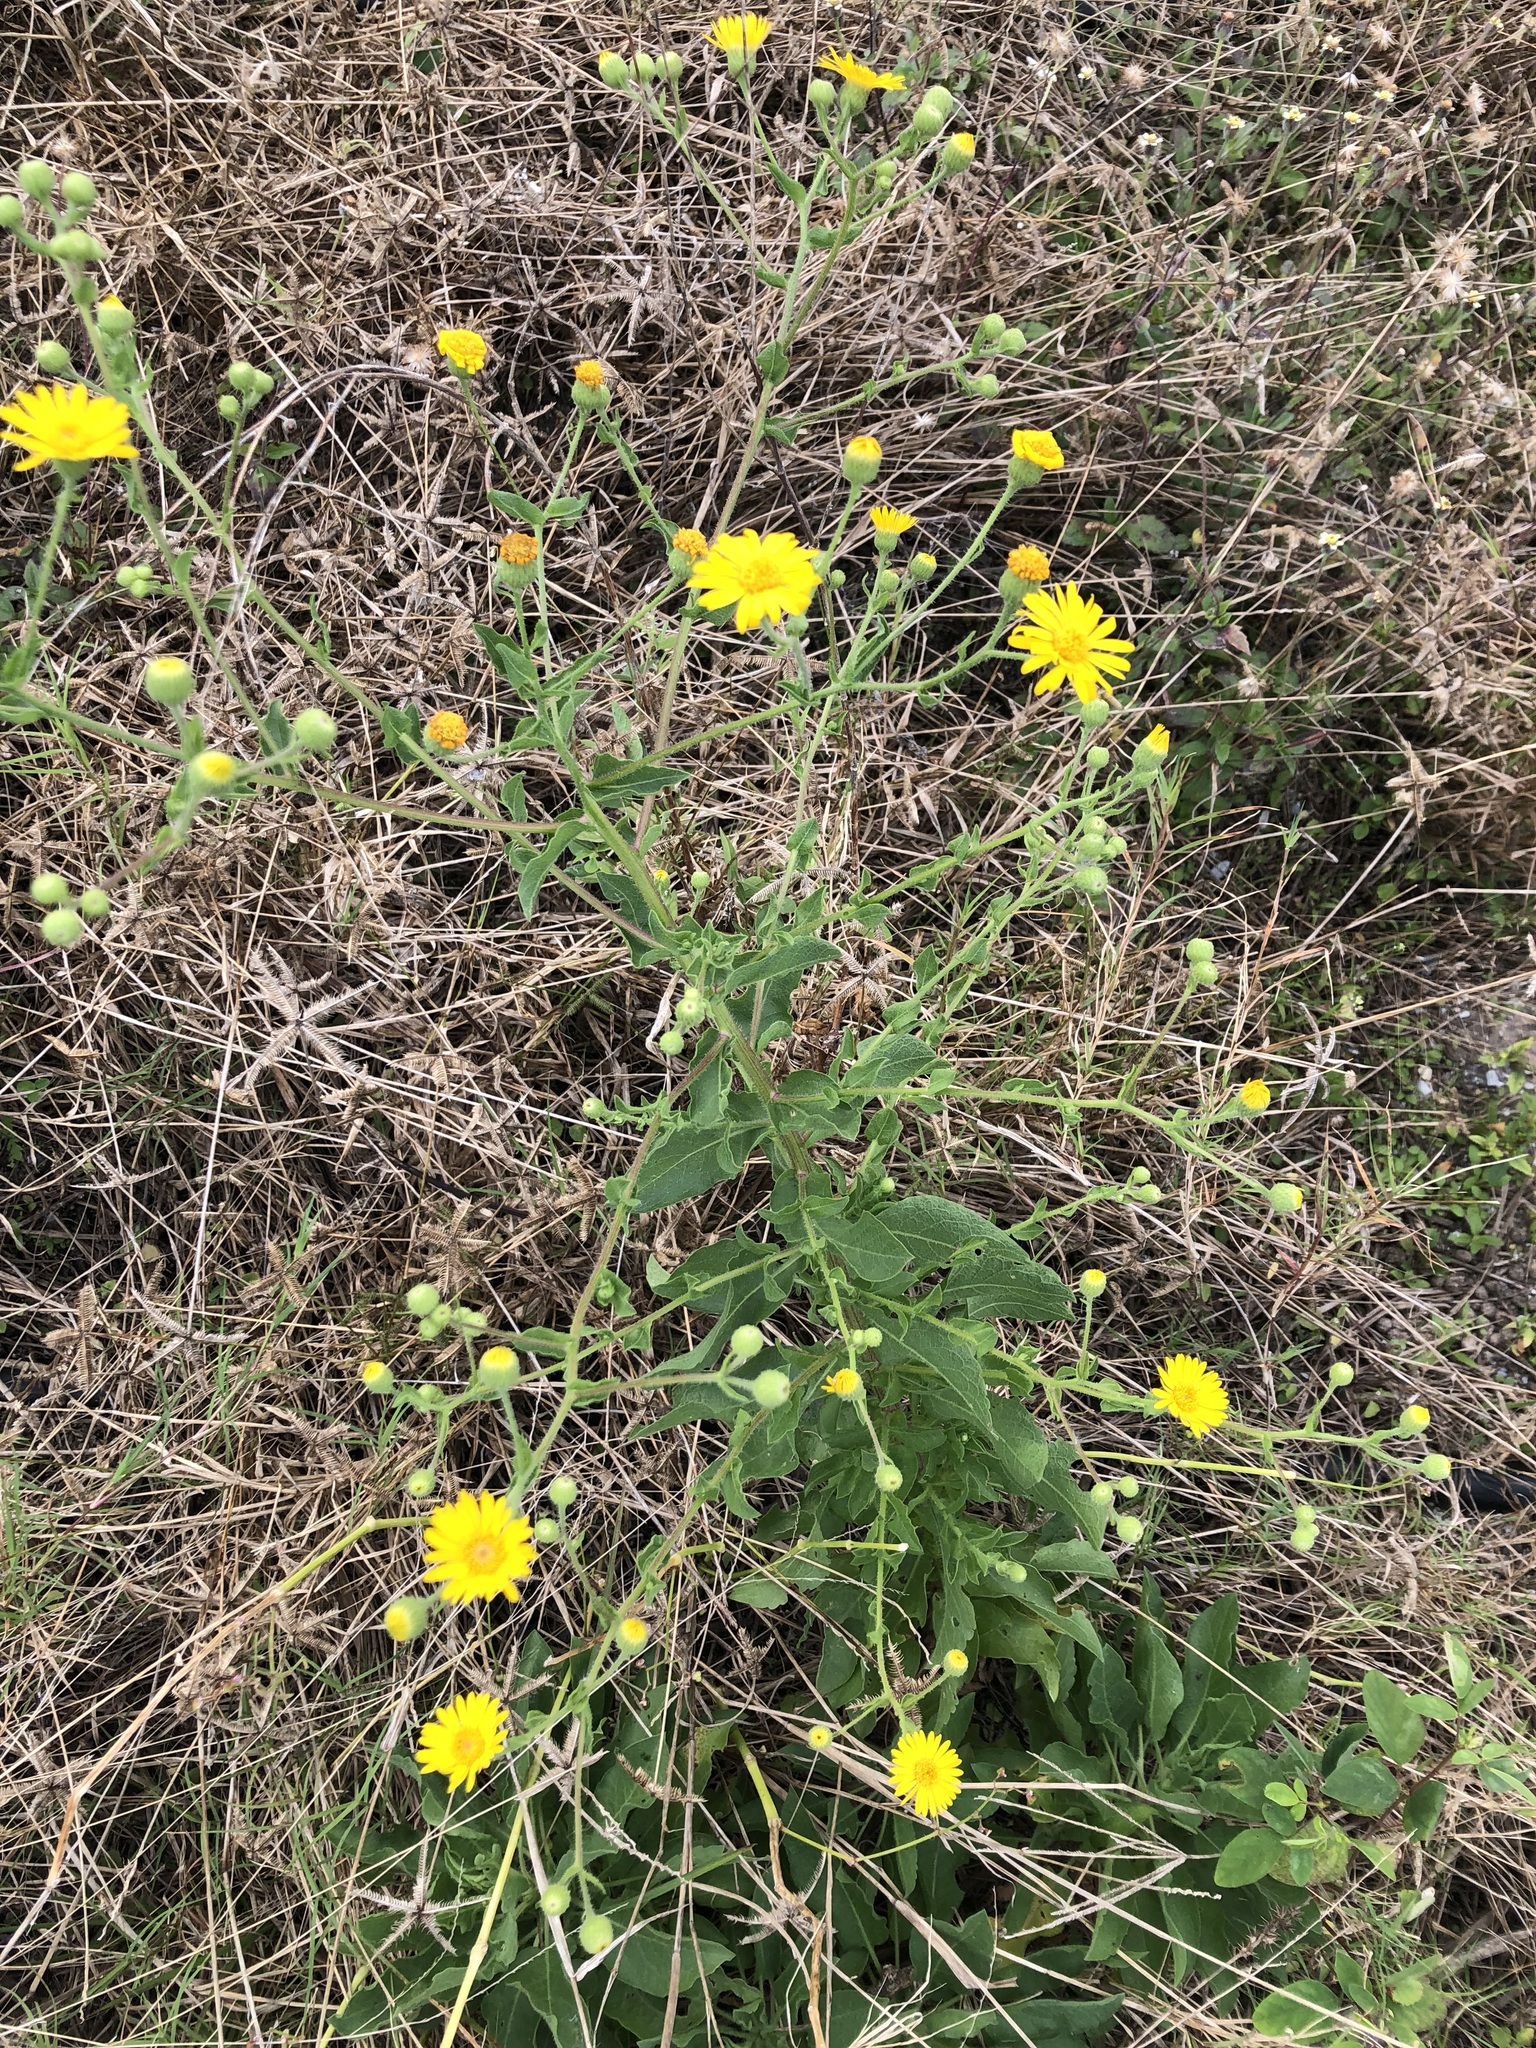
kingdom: Plantae
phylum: Tracheophyta
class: Magnoliopsida
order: Asterales
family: Asteraceae
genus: Heterotheca
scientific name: Heterotheca subaxillaris
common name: Camphorweed
